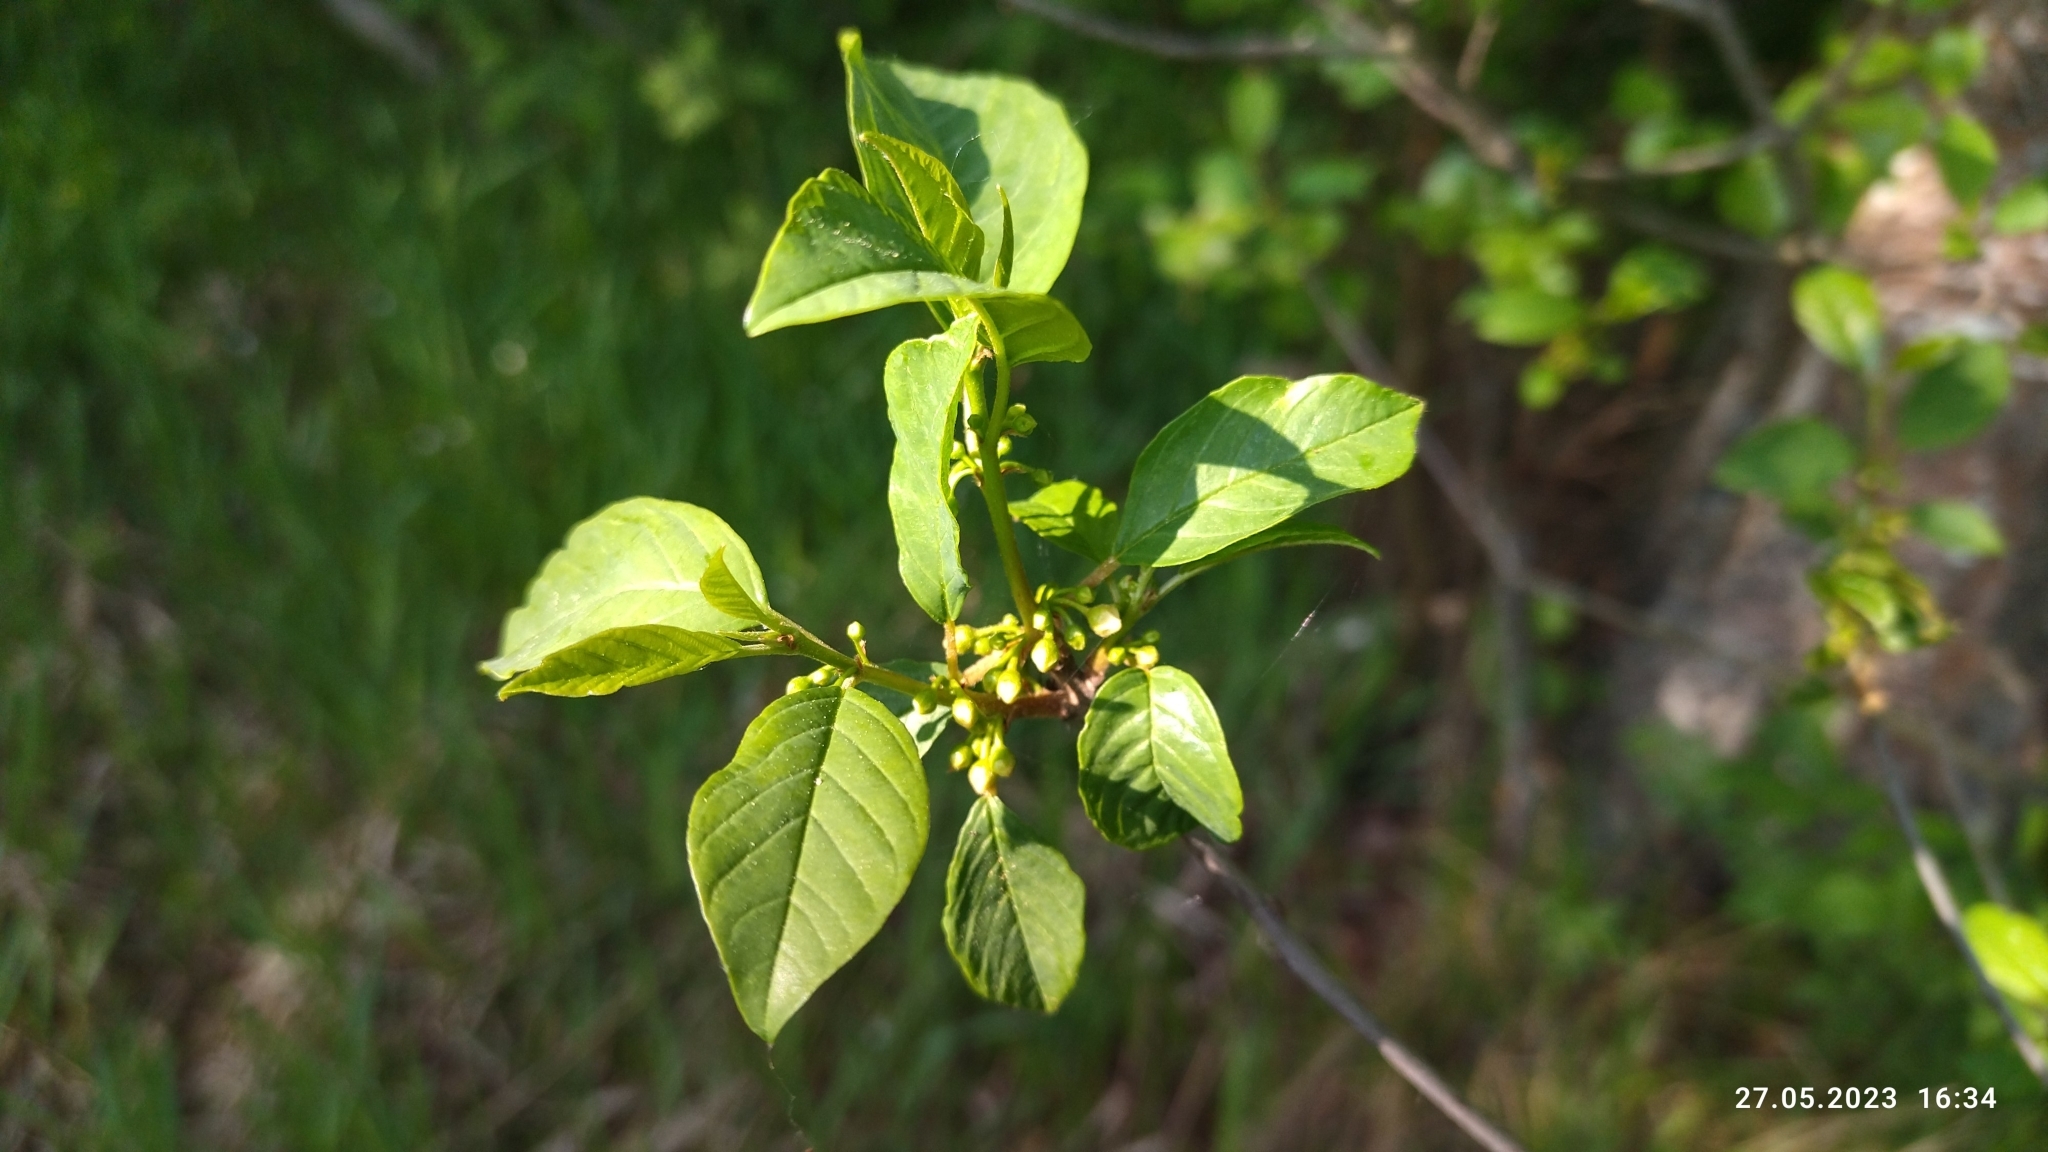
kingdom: Plantae
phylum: Tracheophyta
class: Magnoliopsida
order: Rosales
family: Rhamnaceae
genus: Frangula
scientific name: Frangula alnus
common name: Alder buckthorn
